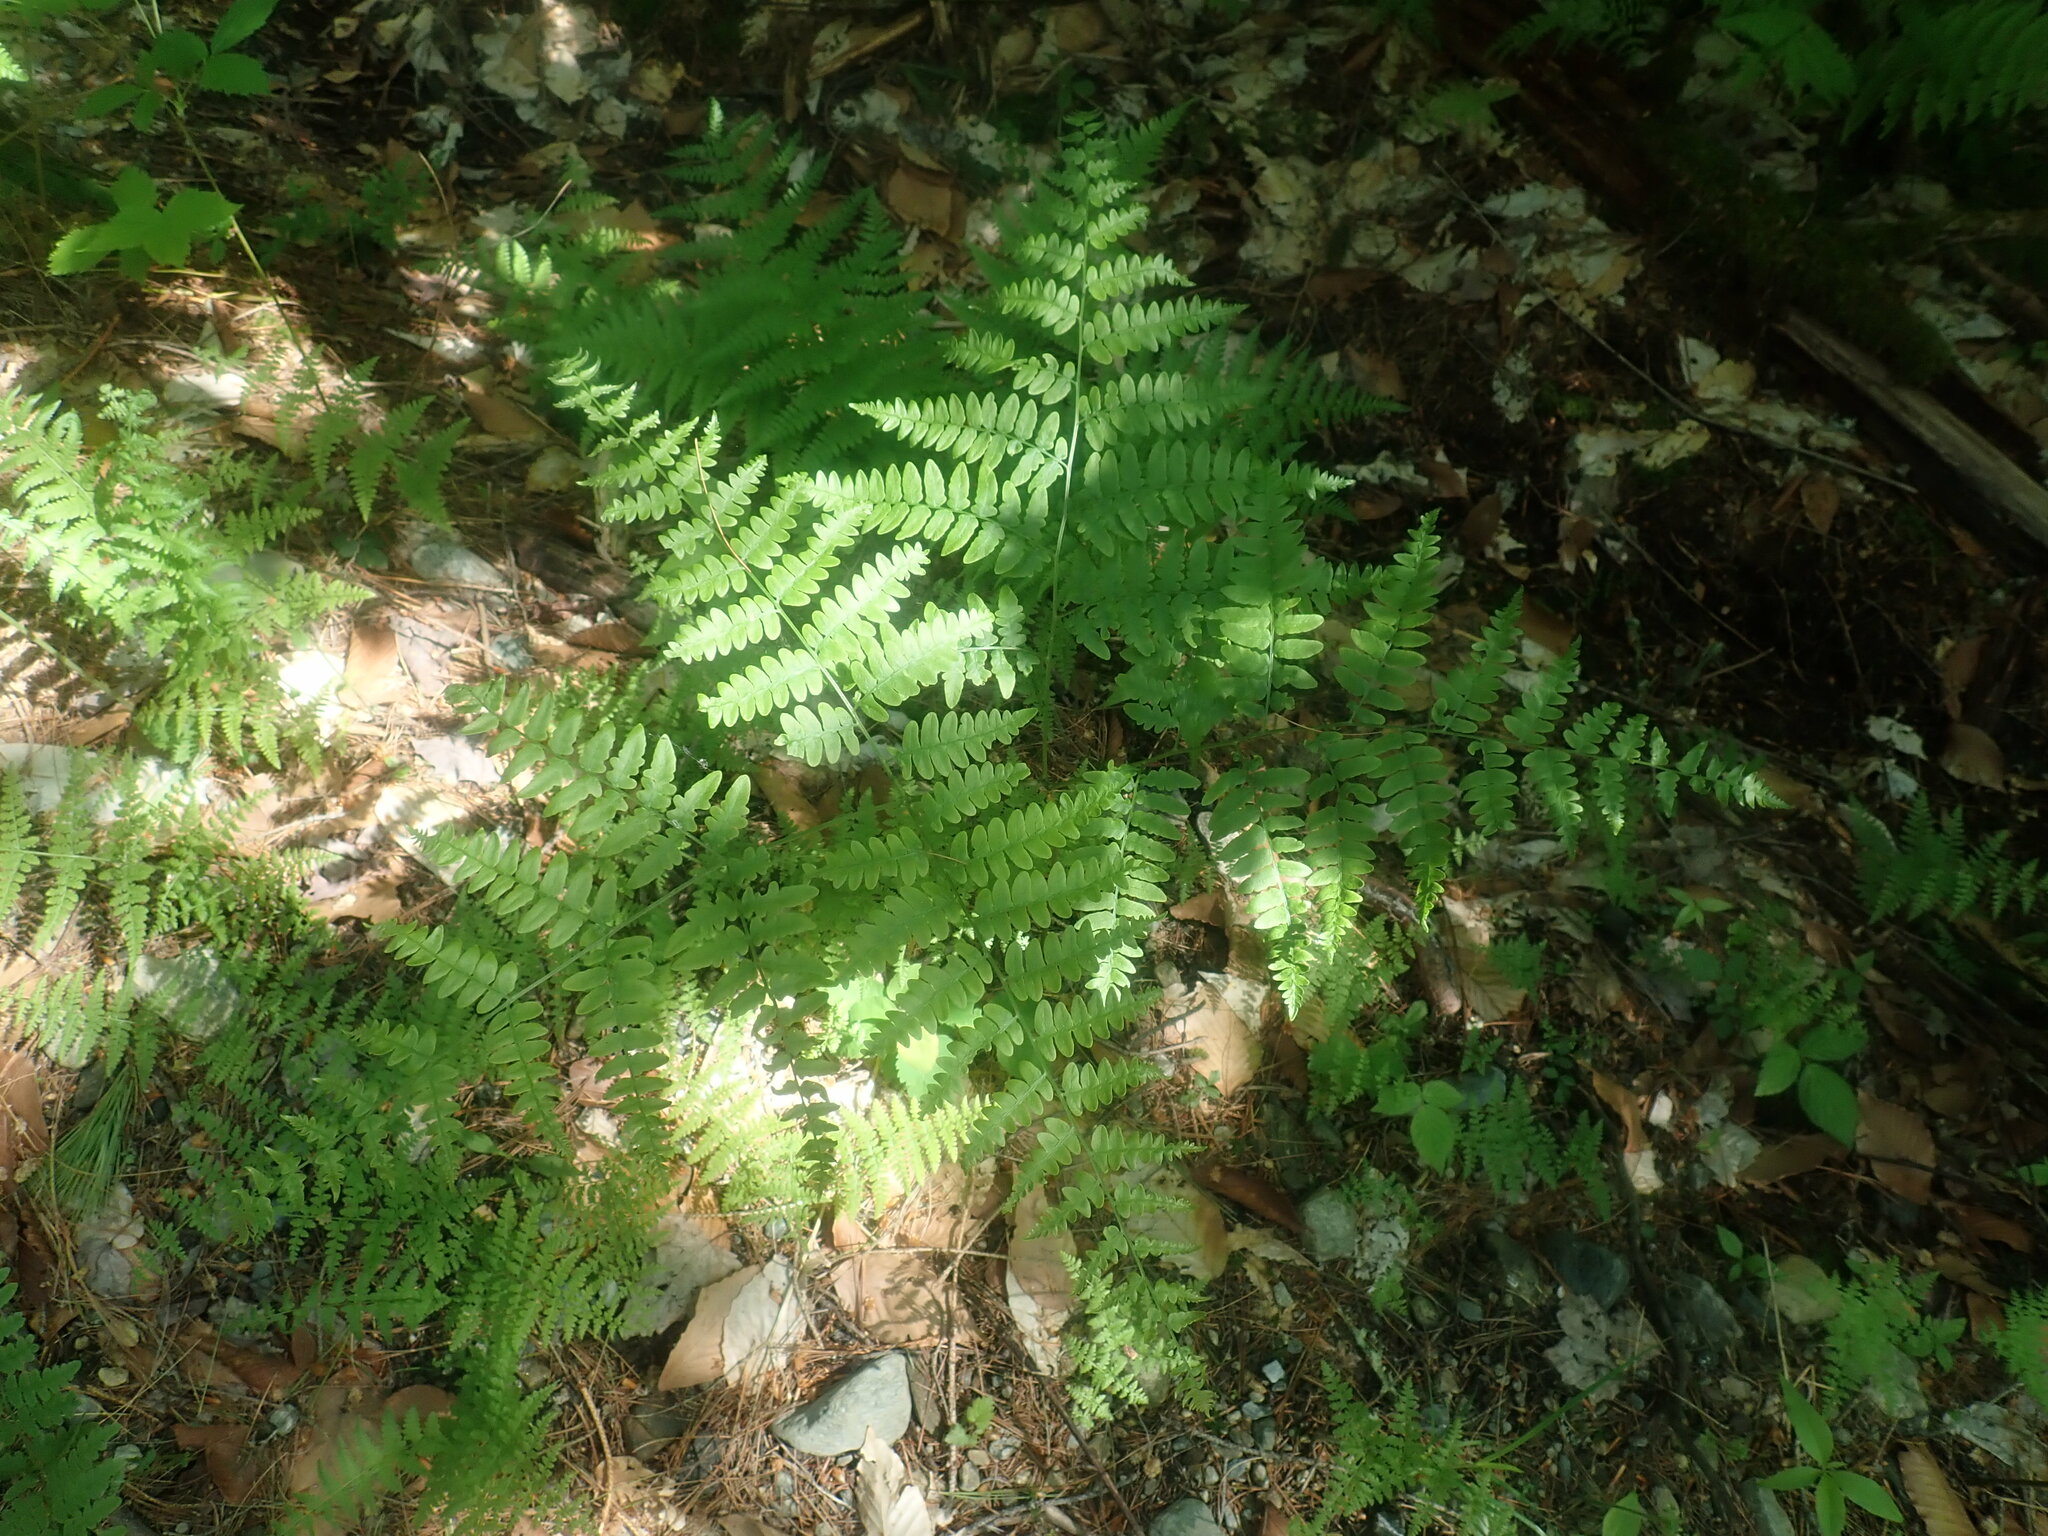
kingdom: Plantae
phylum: Tracheophyta
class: Polypodiopsida
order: Polypodiales
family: Dennstaedtiaceae
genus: Pteridium
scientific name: Pteridium aquilinum
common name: Bracken
